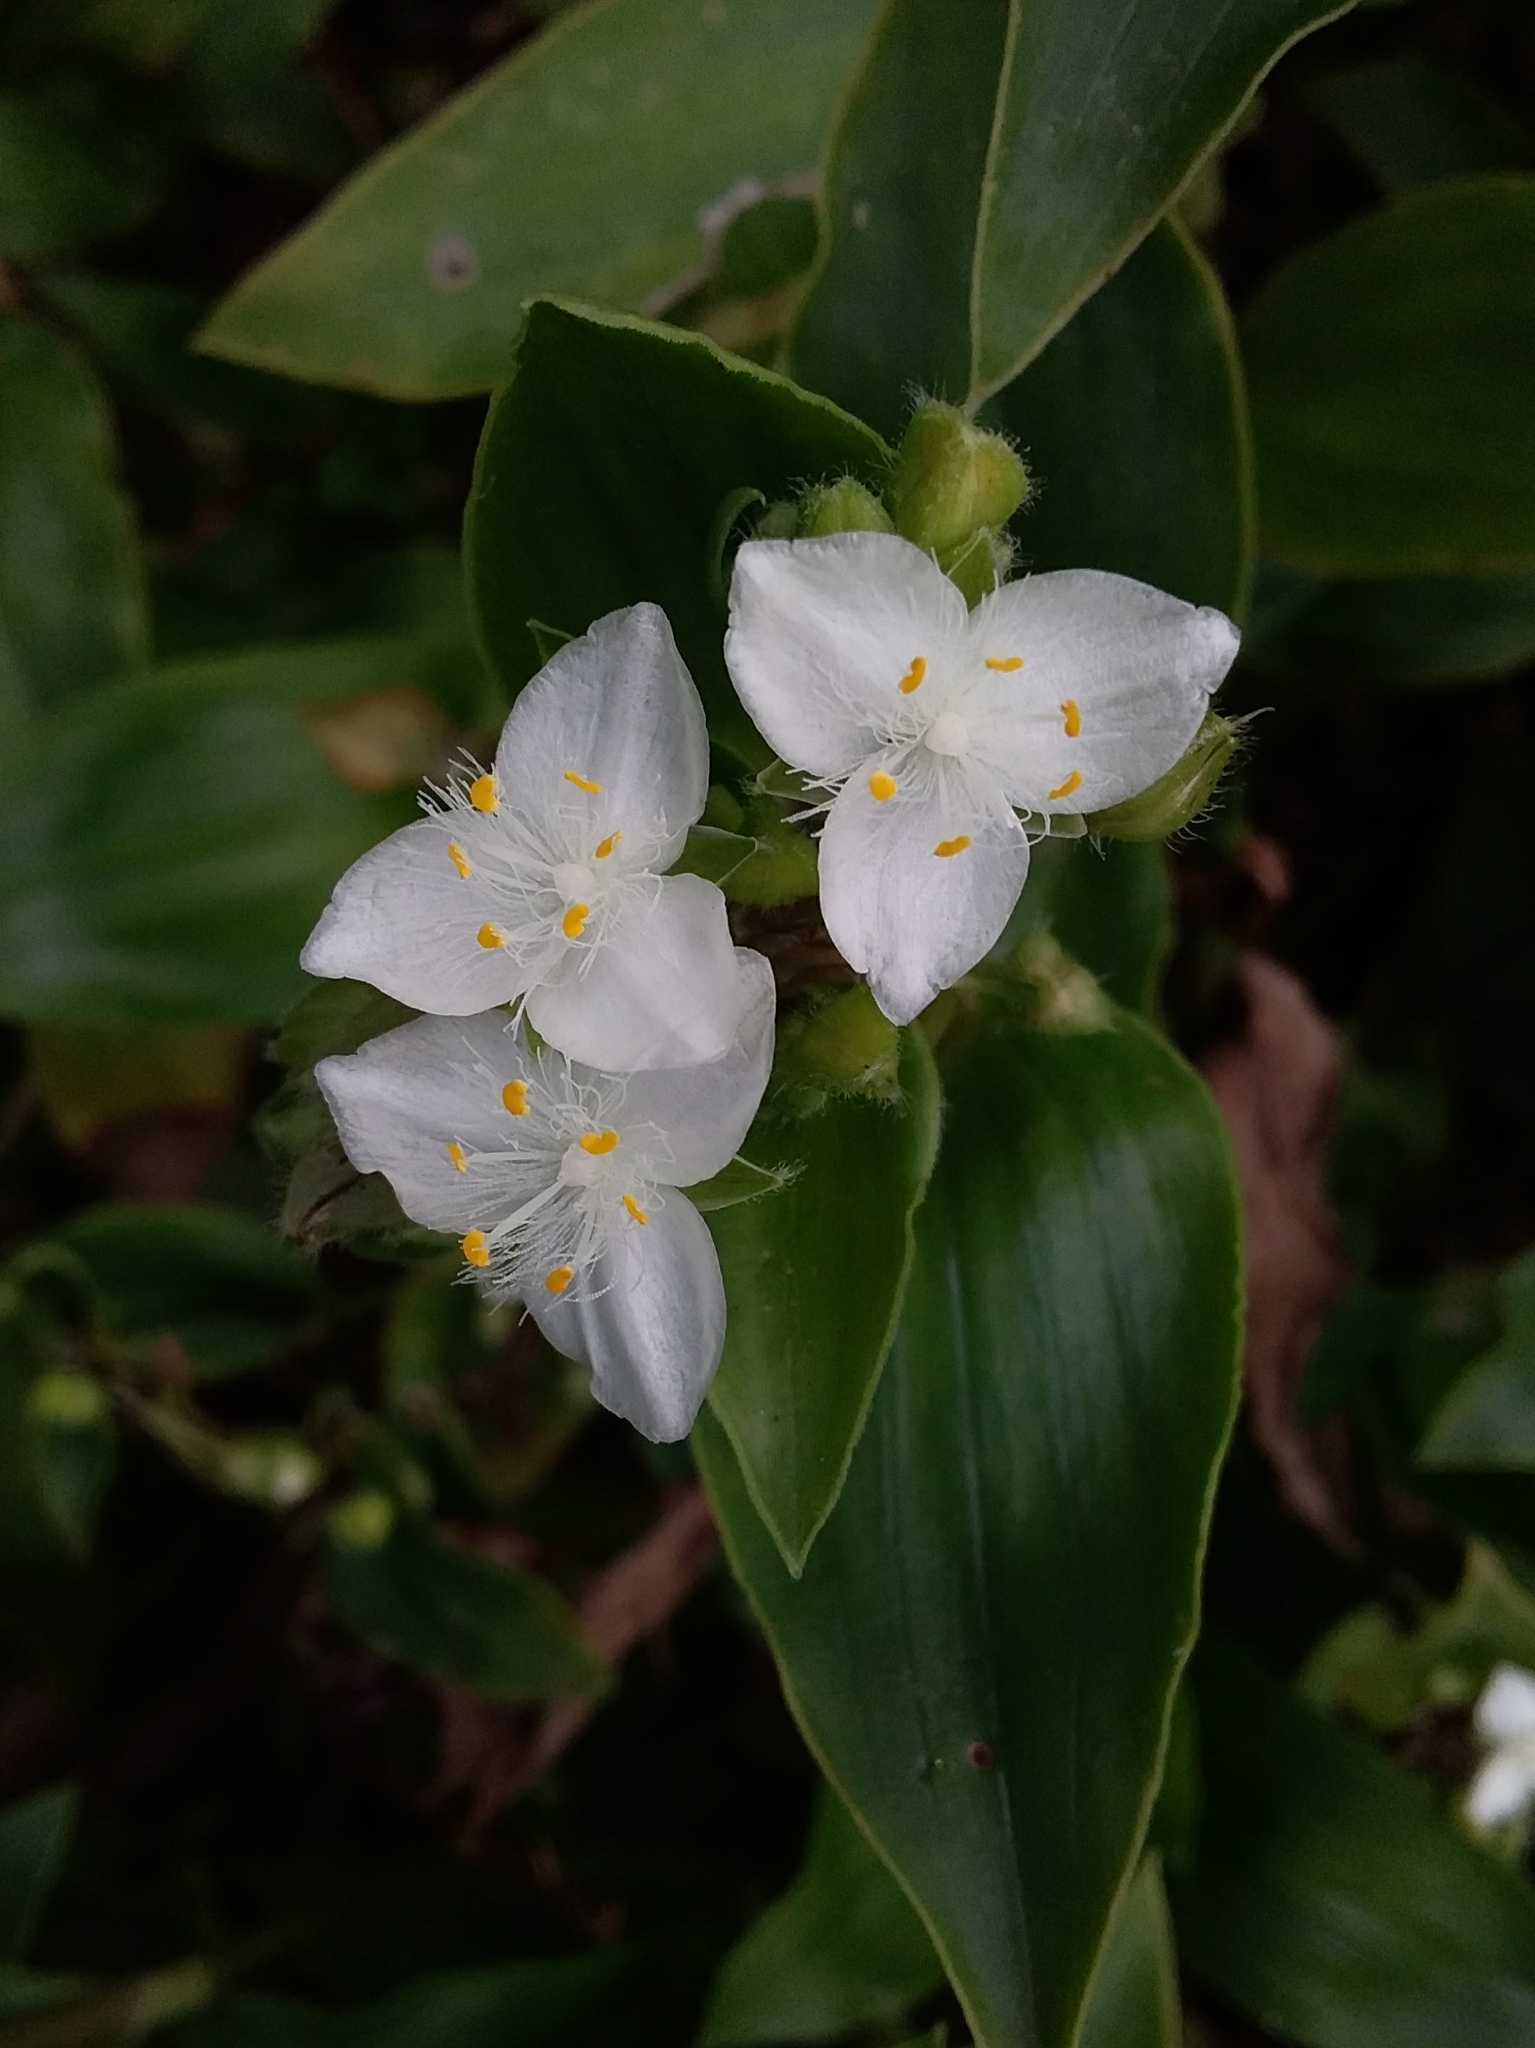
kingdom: Plantae
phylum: Tracheophyta
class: Liliopsida
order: Commelinales
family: Commelinaceae
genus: Tradescantia
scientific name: Tradescantia fluminensis
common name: Wandering-jew
